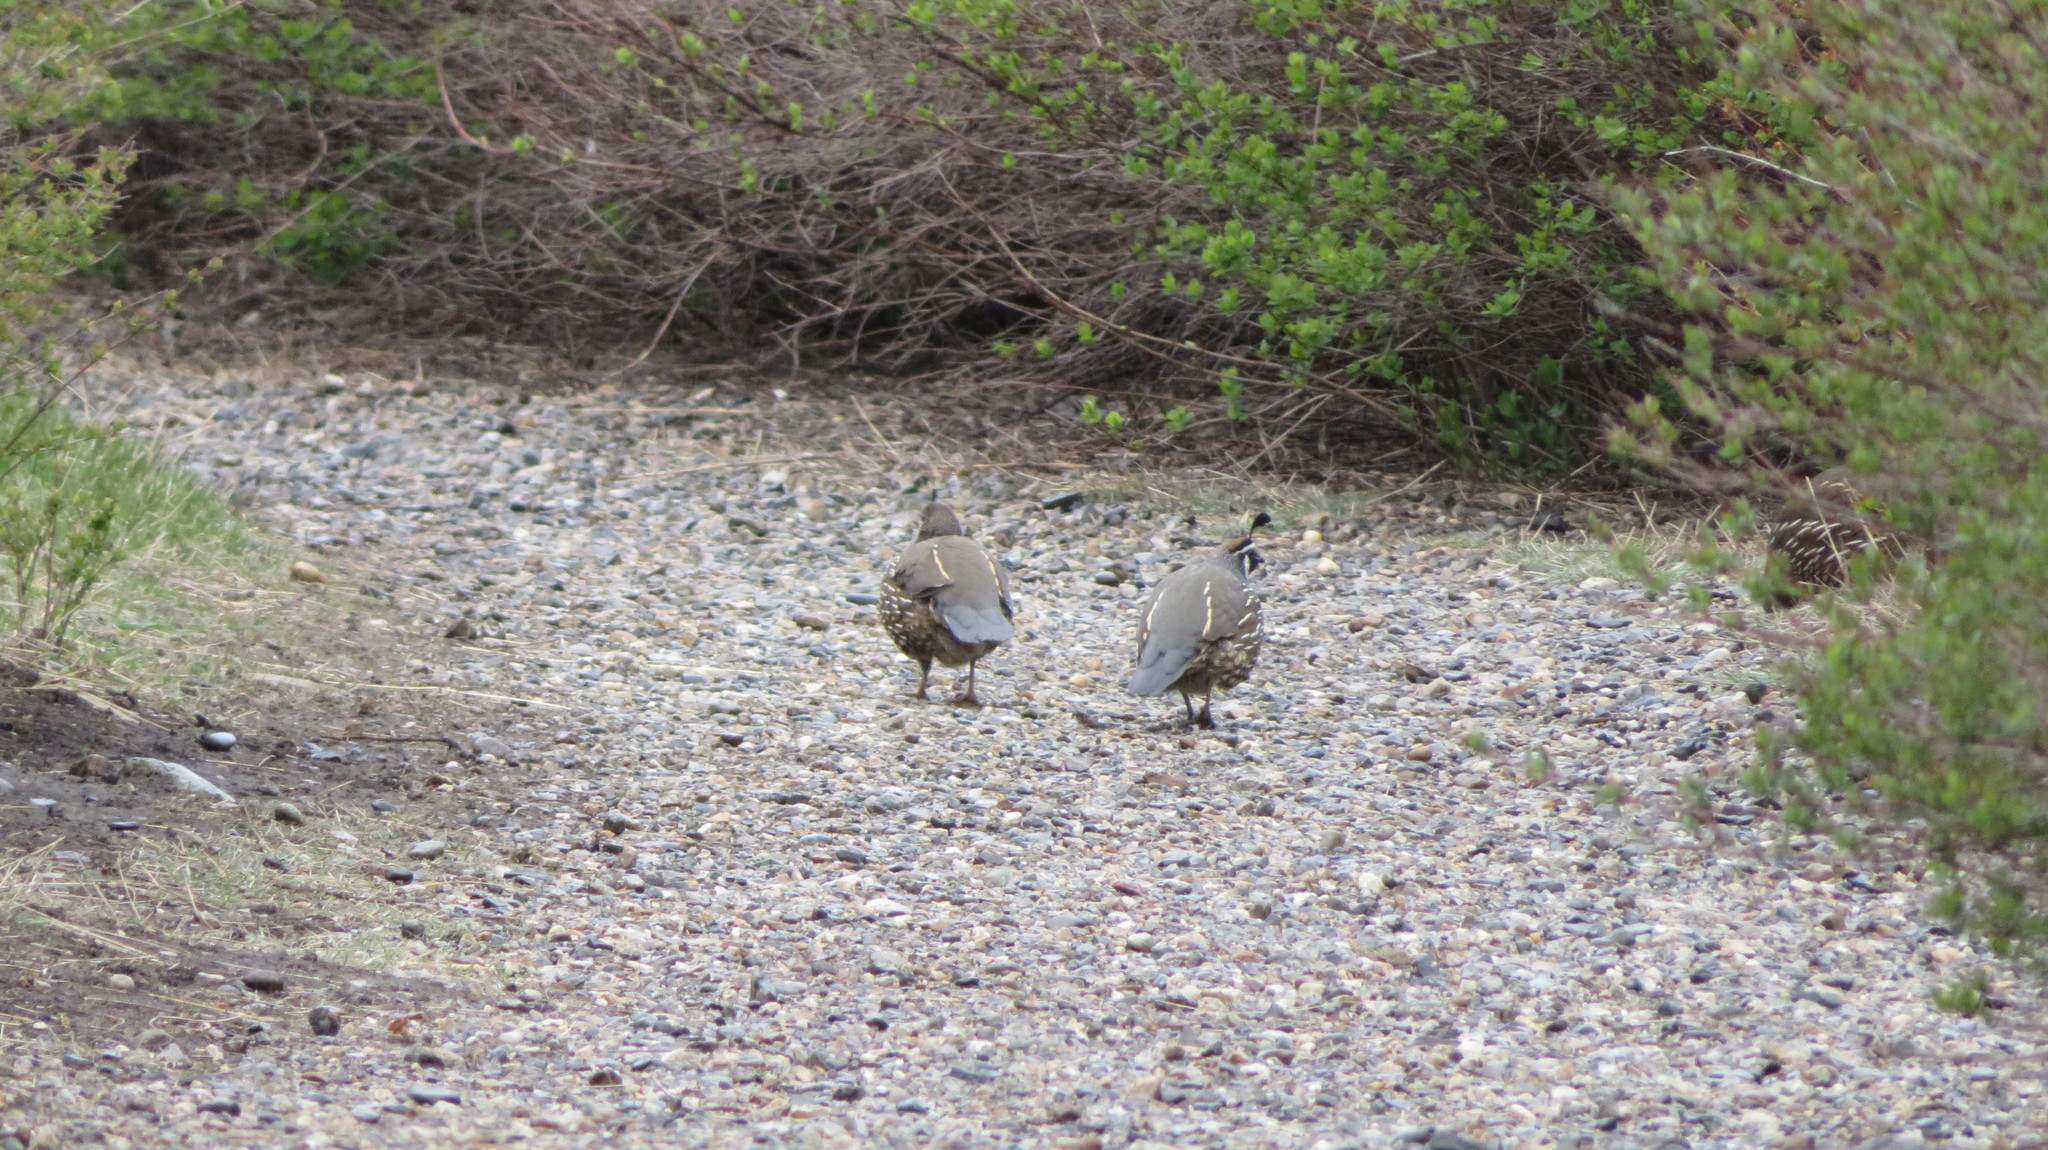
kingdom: Animalia
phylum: Chordata
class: Aves
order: Galliformes
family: Odontophoridae
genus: Callipepla
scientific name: Callipepla californica
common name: California quail
